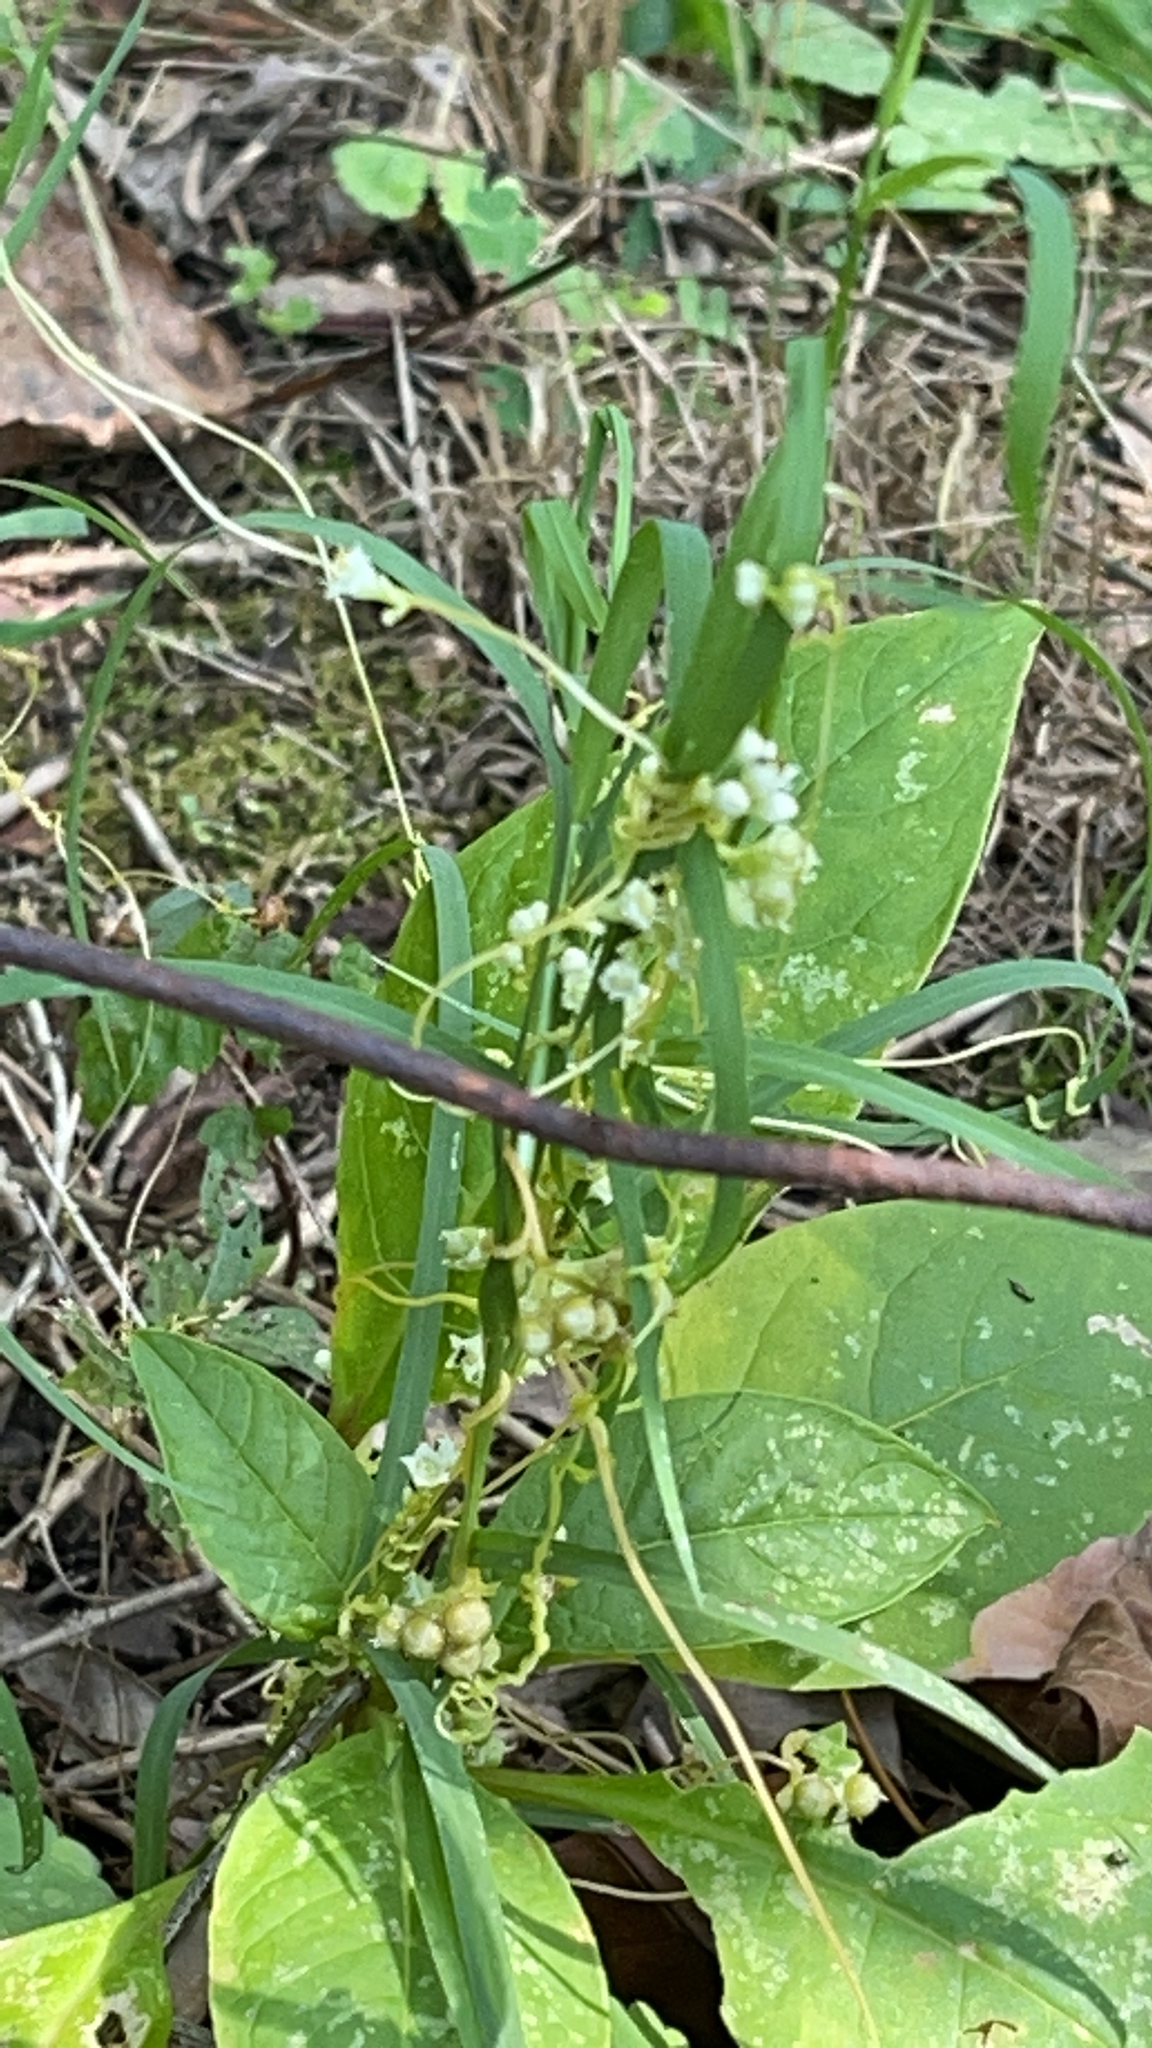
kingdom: Plantae
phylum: Tracheophyta
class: Magnoliopsida
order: Solanales
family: Convolvulaceae
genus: Cuscuta
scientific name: Cuscuta
